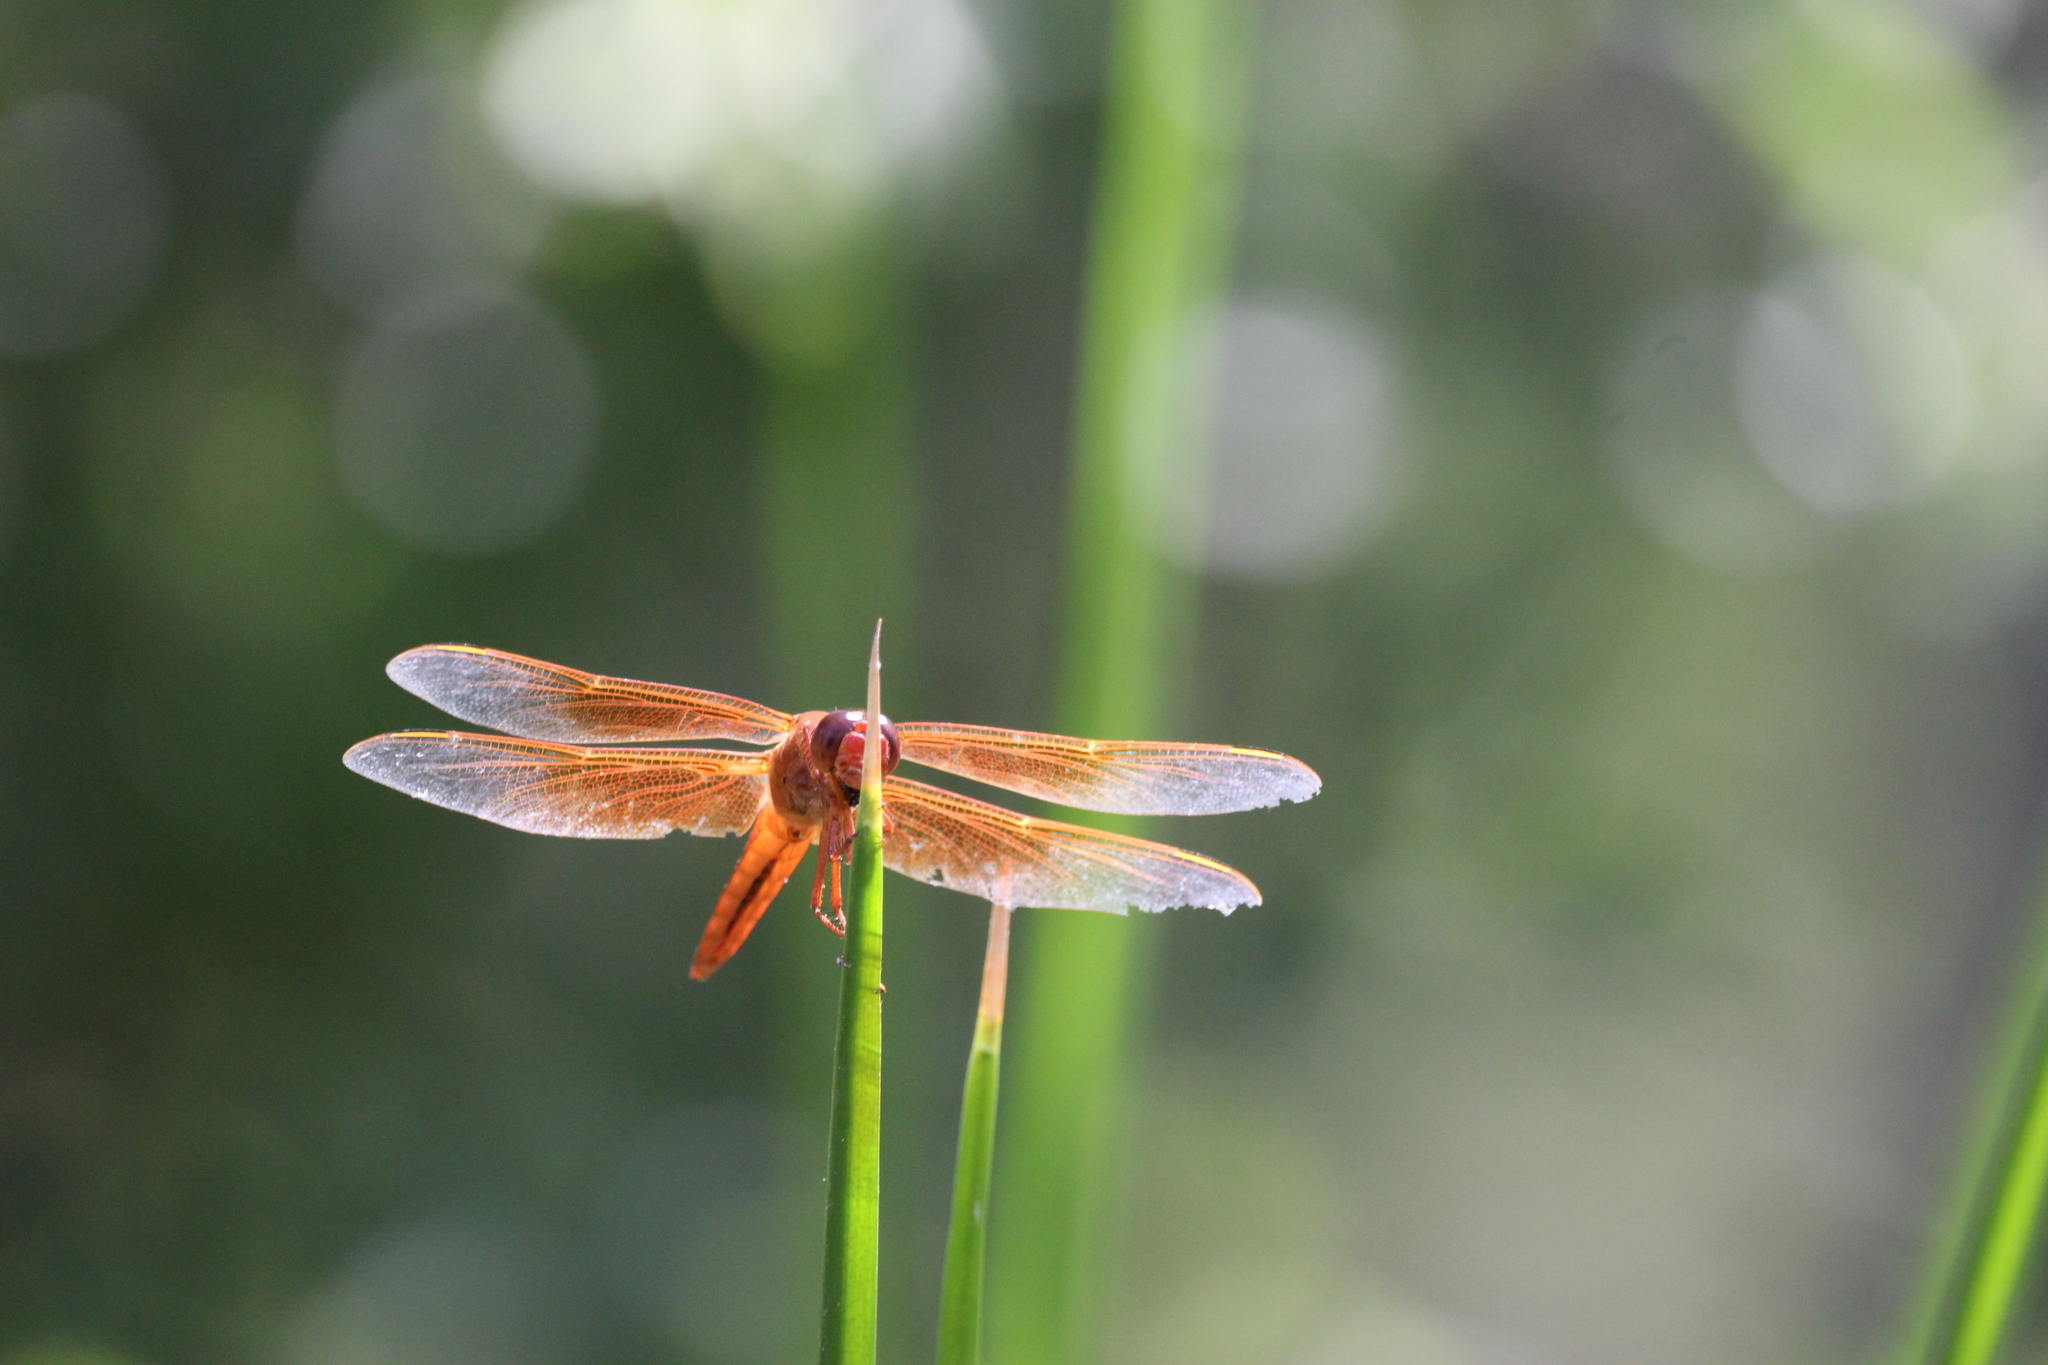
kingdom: Animalia
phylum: Arthropoda
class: Insecta
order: Odonata
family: Libellulidae
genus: Libellula
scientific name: Libellula saturata
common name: Flame skimmer
